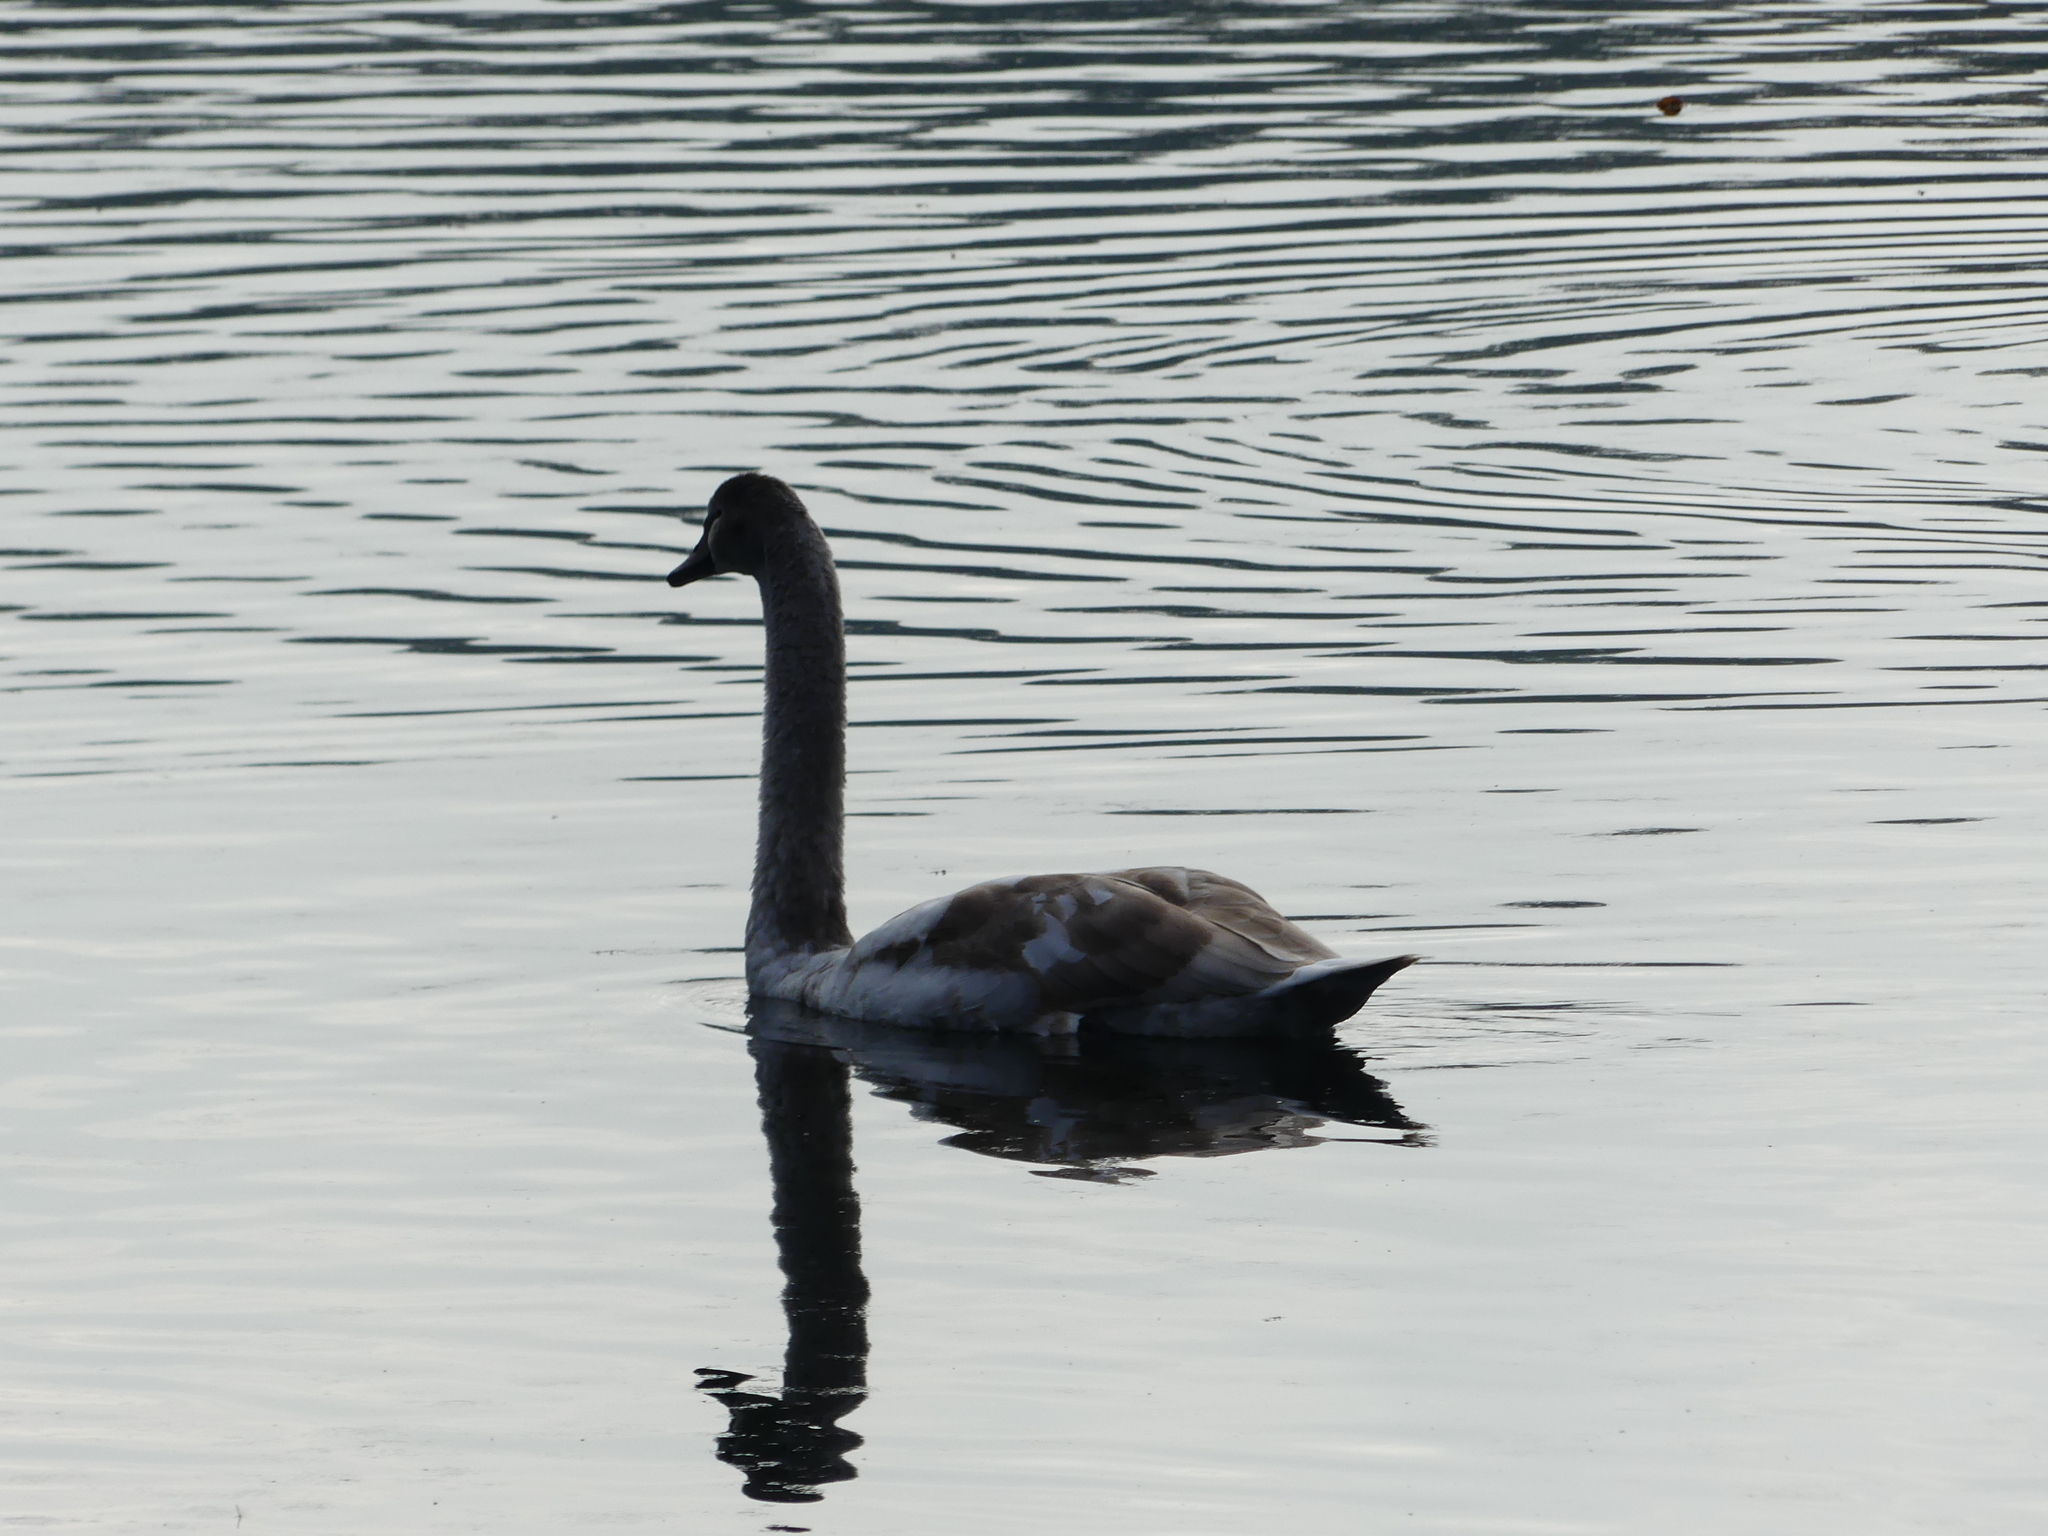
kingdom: Animalia
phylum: Chordata
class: Aves
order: Anseriformes
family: Anatidae
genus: Cygnus
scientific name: Cygnus olor
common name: Mute swan
